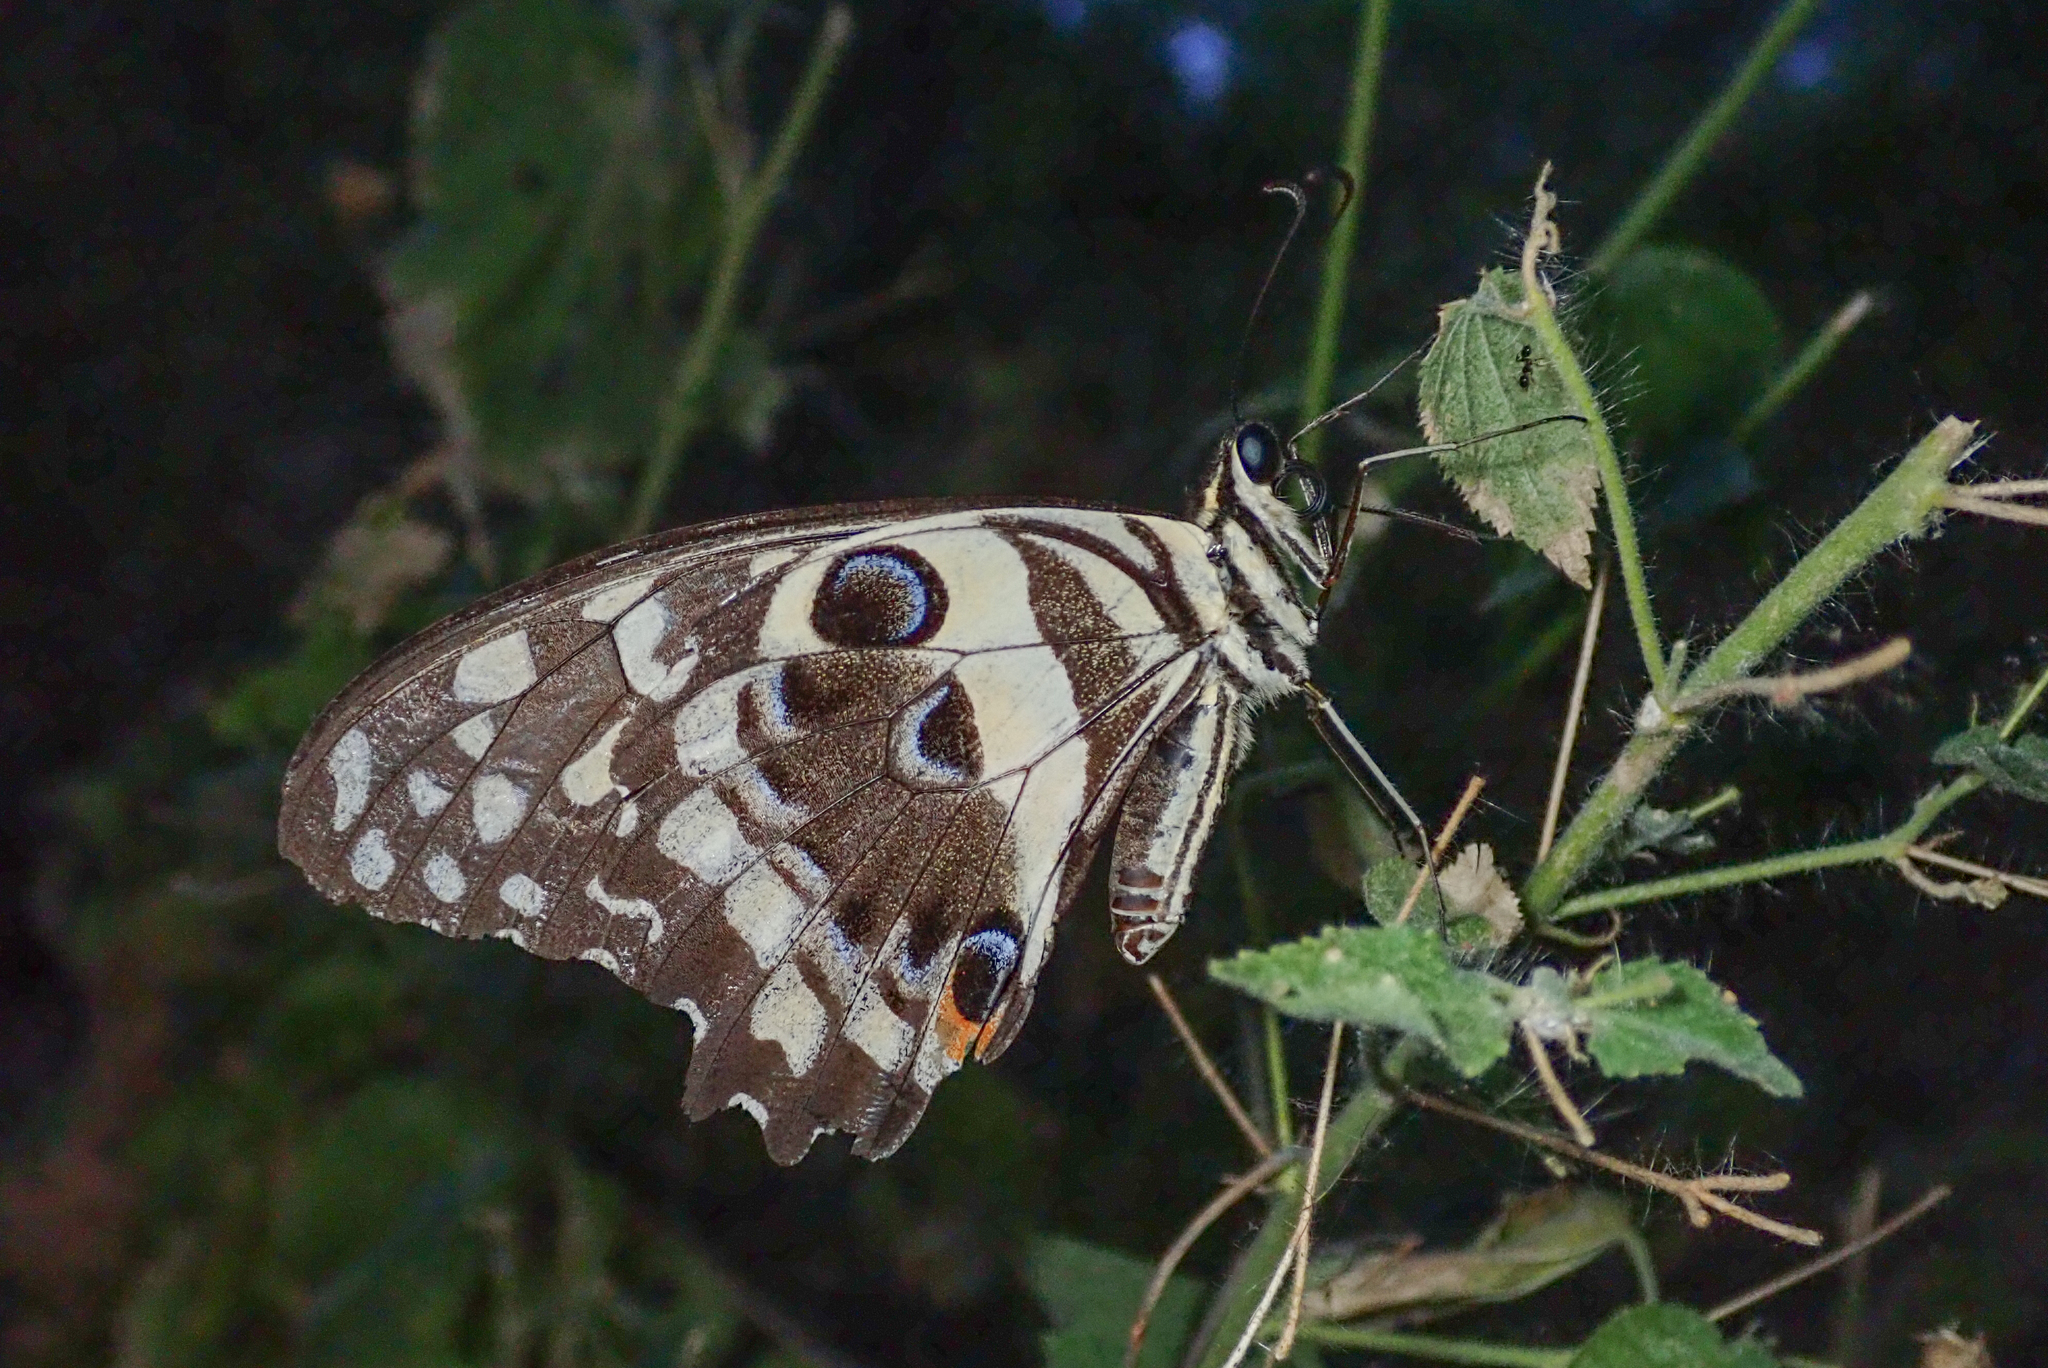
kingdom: Animalia
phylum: Arthropoda
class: Insecta
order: Lepidoptera
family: Papilionidae
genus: Papilio
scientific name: Papilio demodocus
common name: Christmas butterfly
